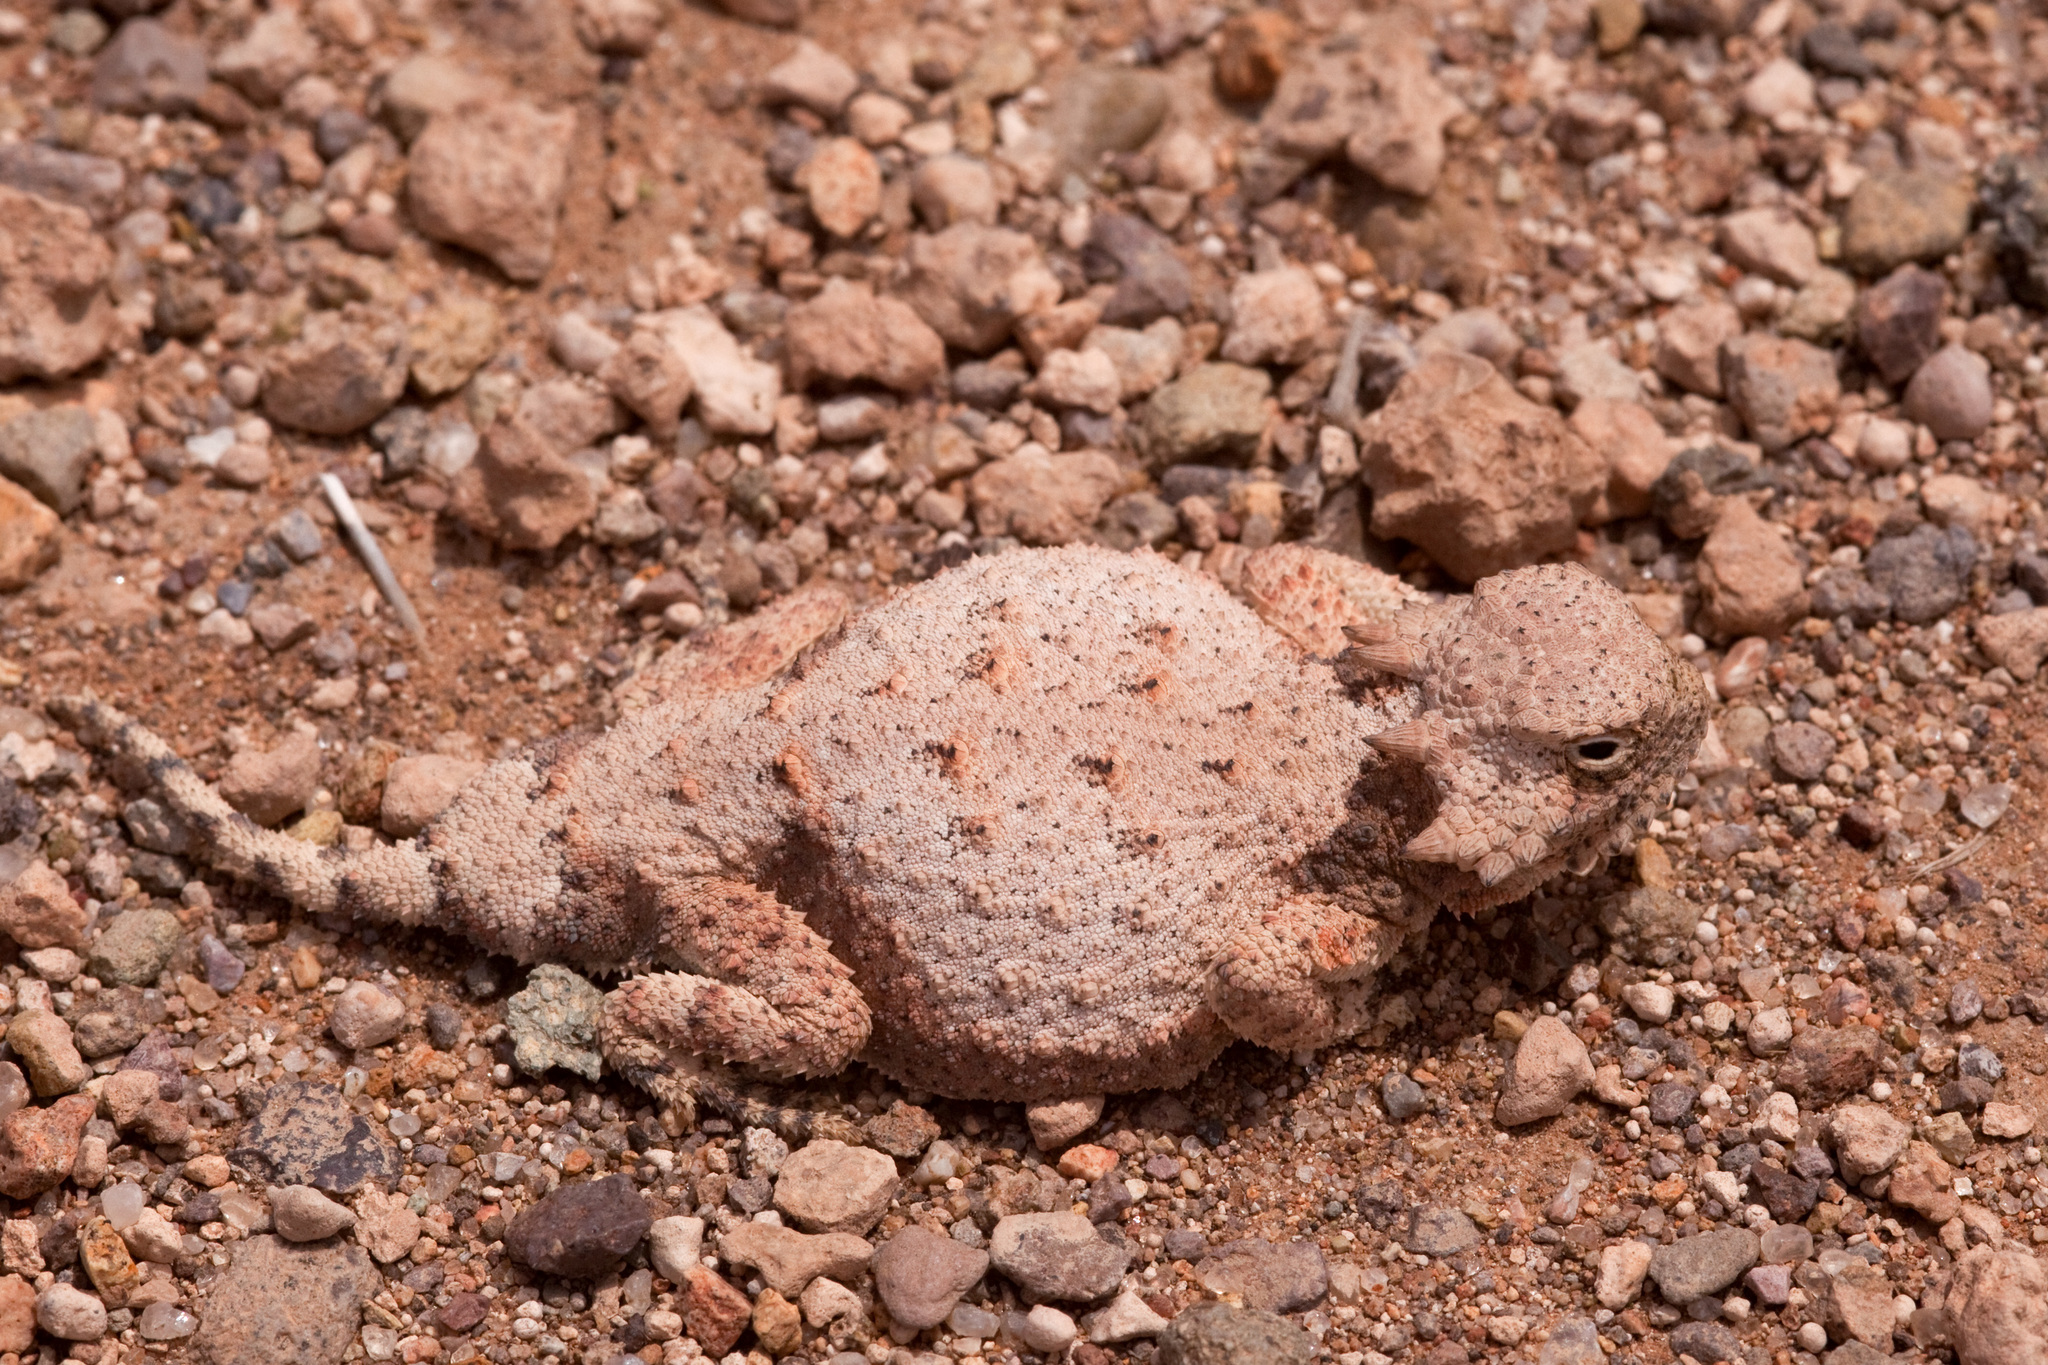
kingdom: Animalia
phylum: Chordata
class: Squamata
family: Phrynosomatidae
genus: Phrynosoma
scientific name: Phrynosoma modestum
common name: Roundtail horned lizard
